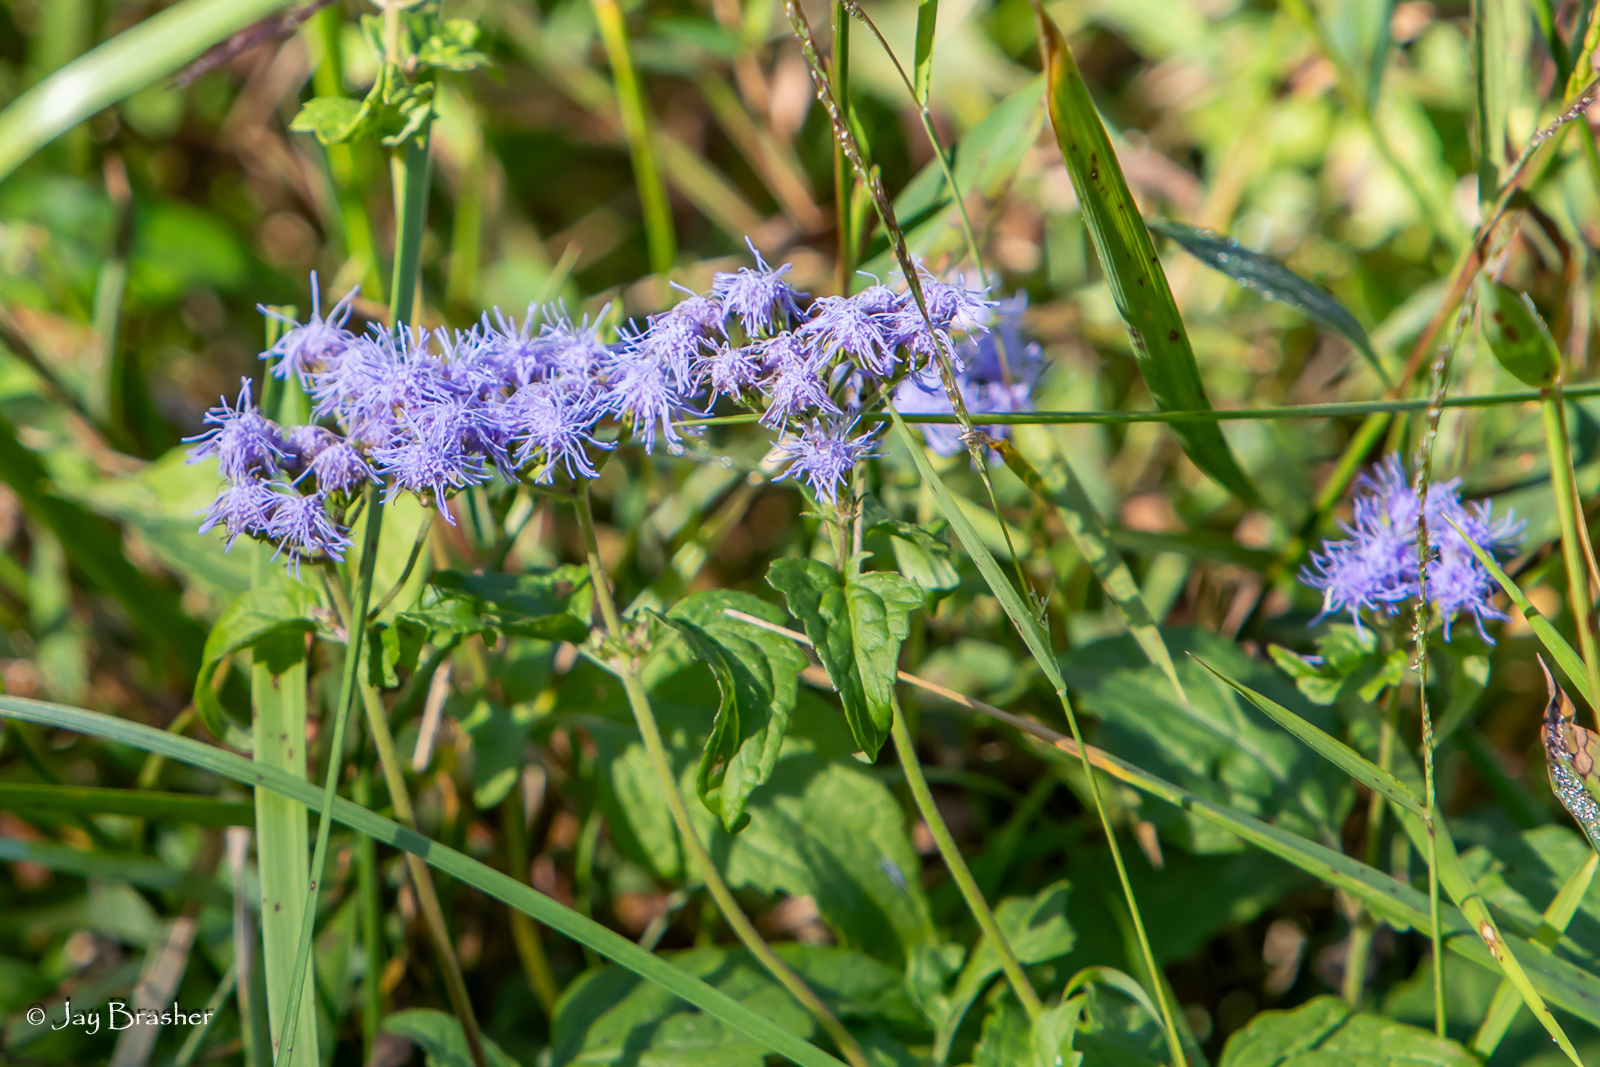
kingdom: Plantae
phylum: Tracheophyta
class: Magnoliopsida
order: Asterales
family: Asteraceae
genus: Conoclinium
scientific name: Conoclinium coelestinum
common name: Blue mistflower
